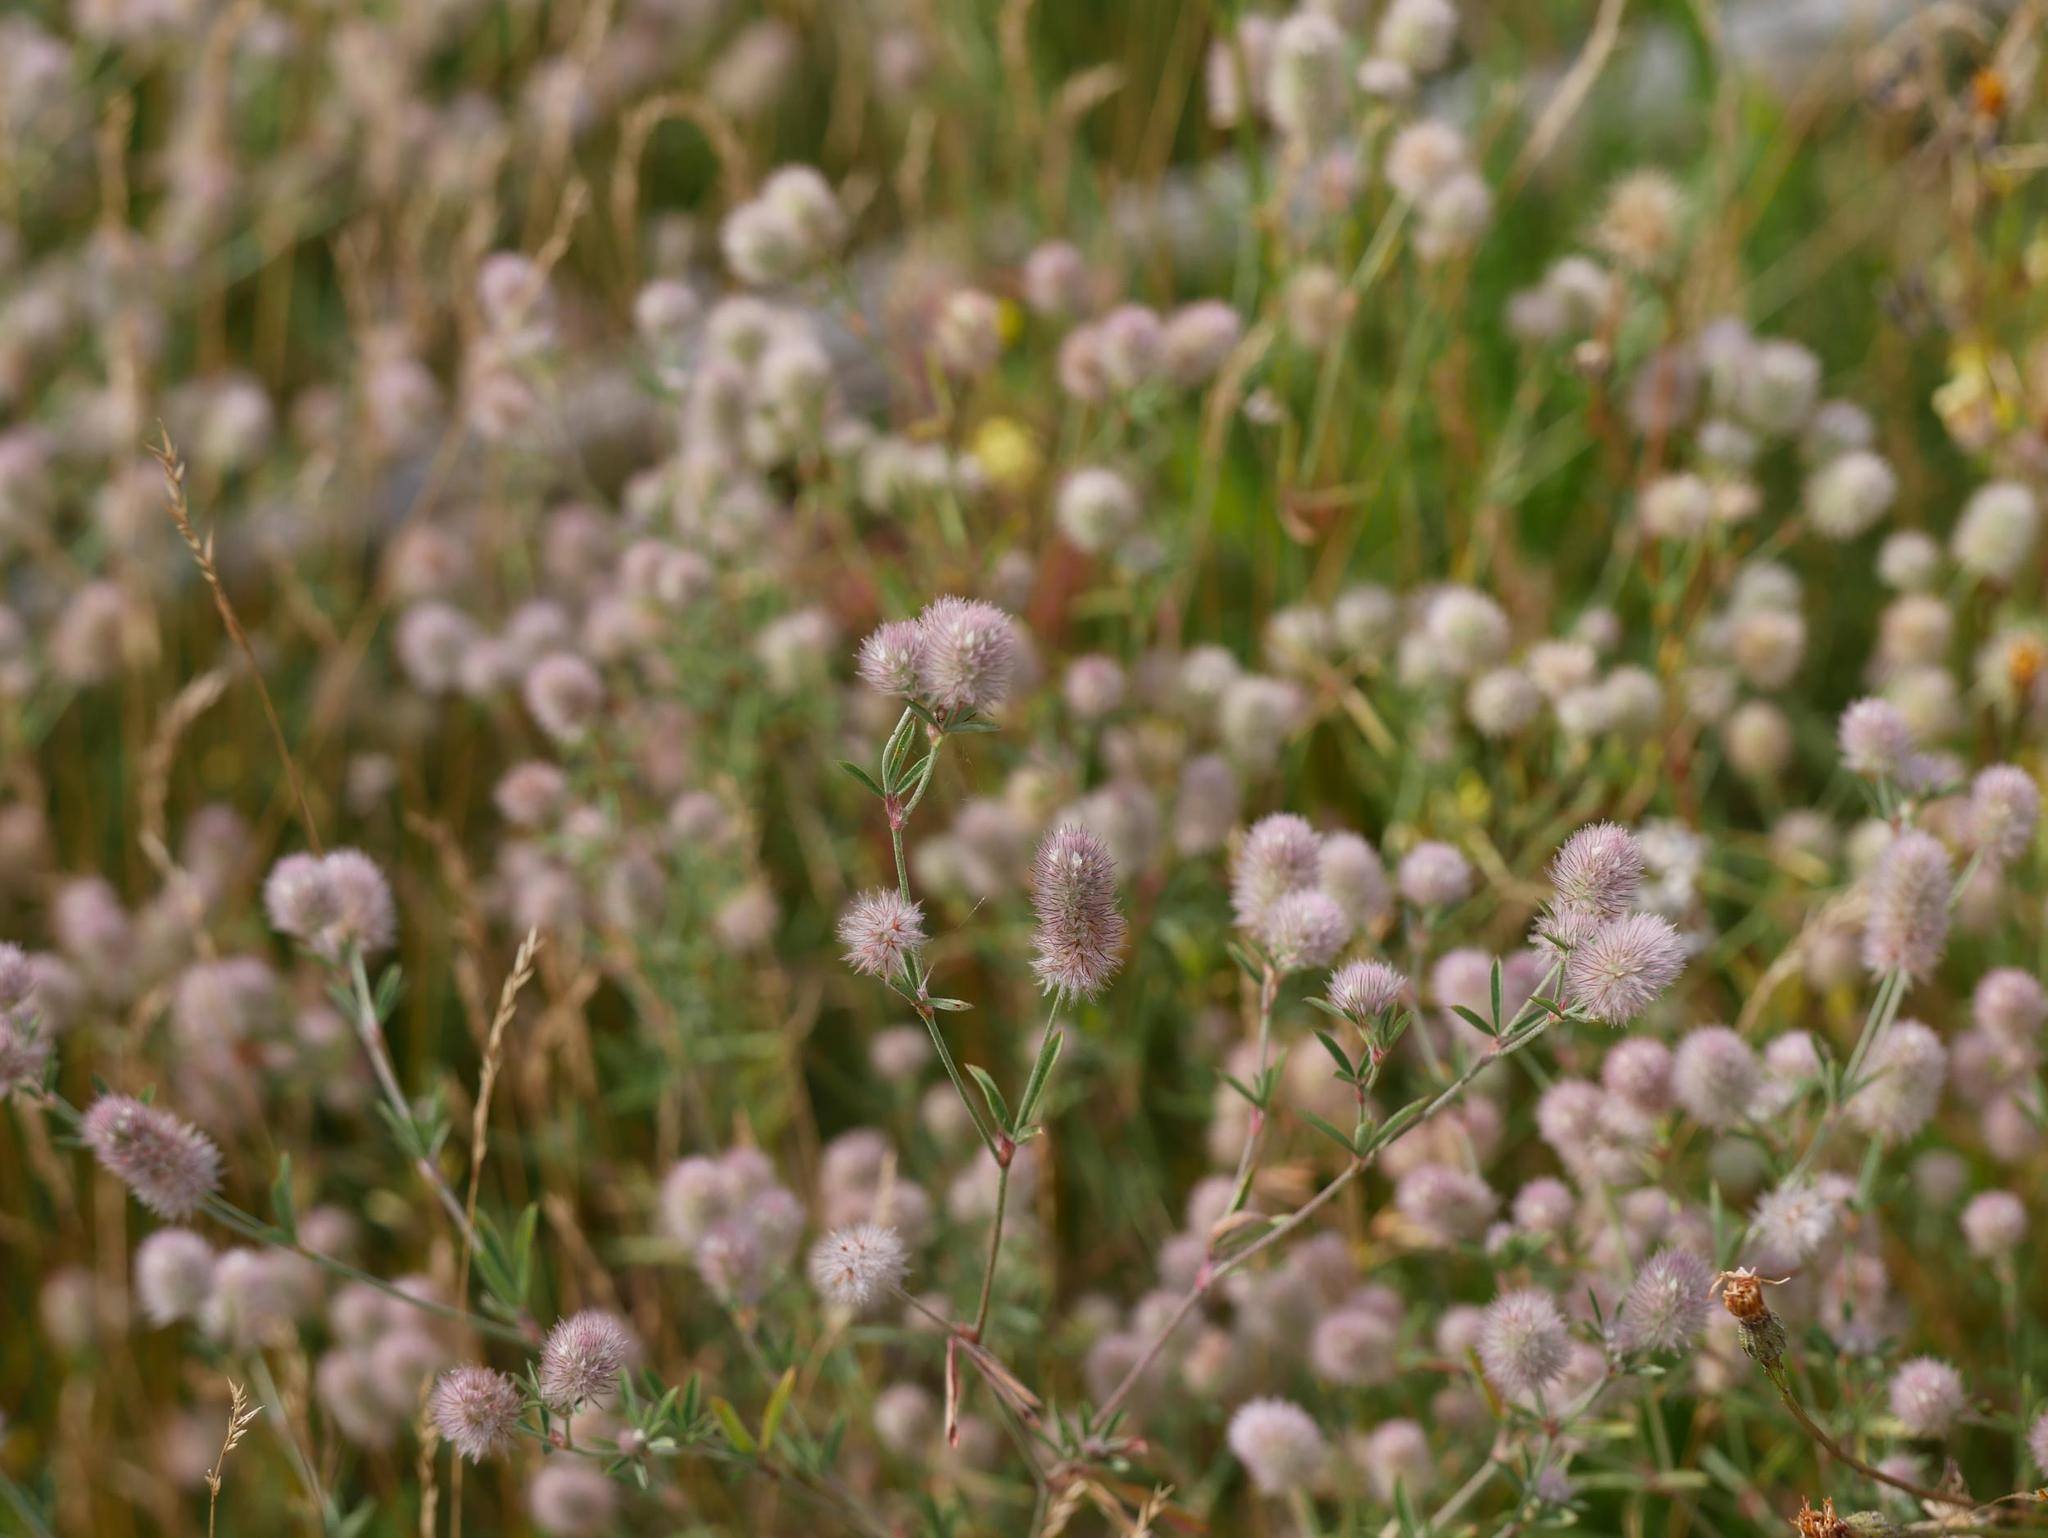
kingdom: Plantae
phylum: Tracheophyta
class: Magnoliopsida
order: Fabales
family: Fabaceae
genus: Trifolium
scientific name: Trifolium arvense
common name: Hare's-foot clover
